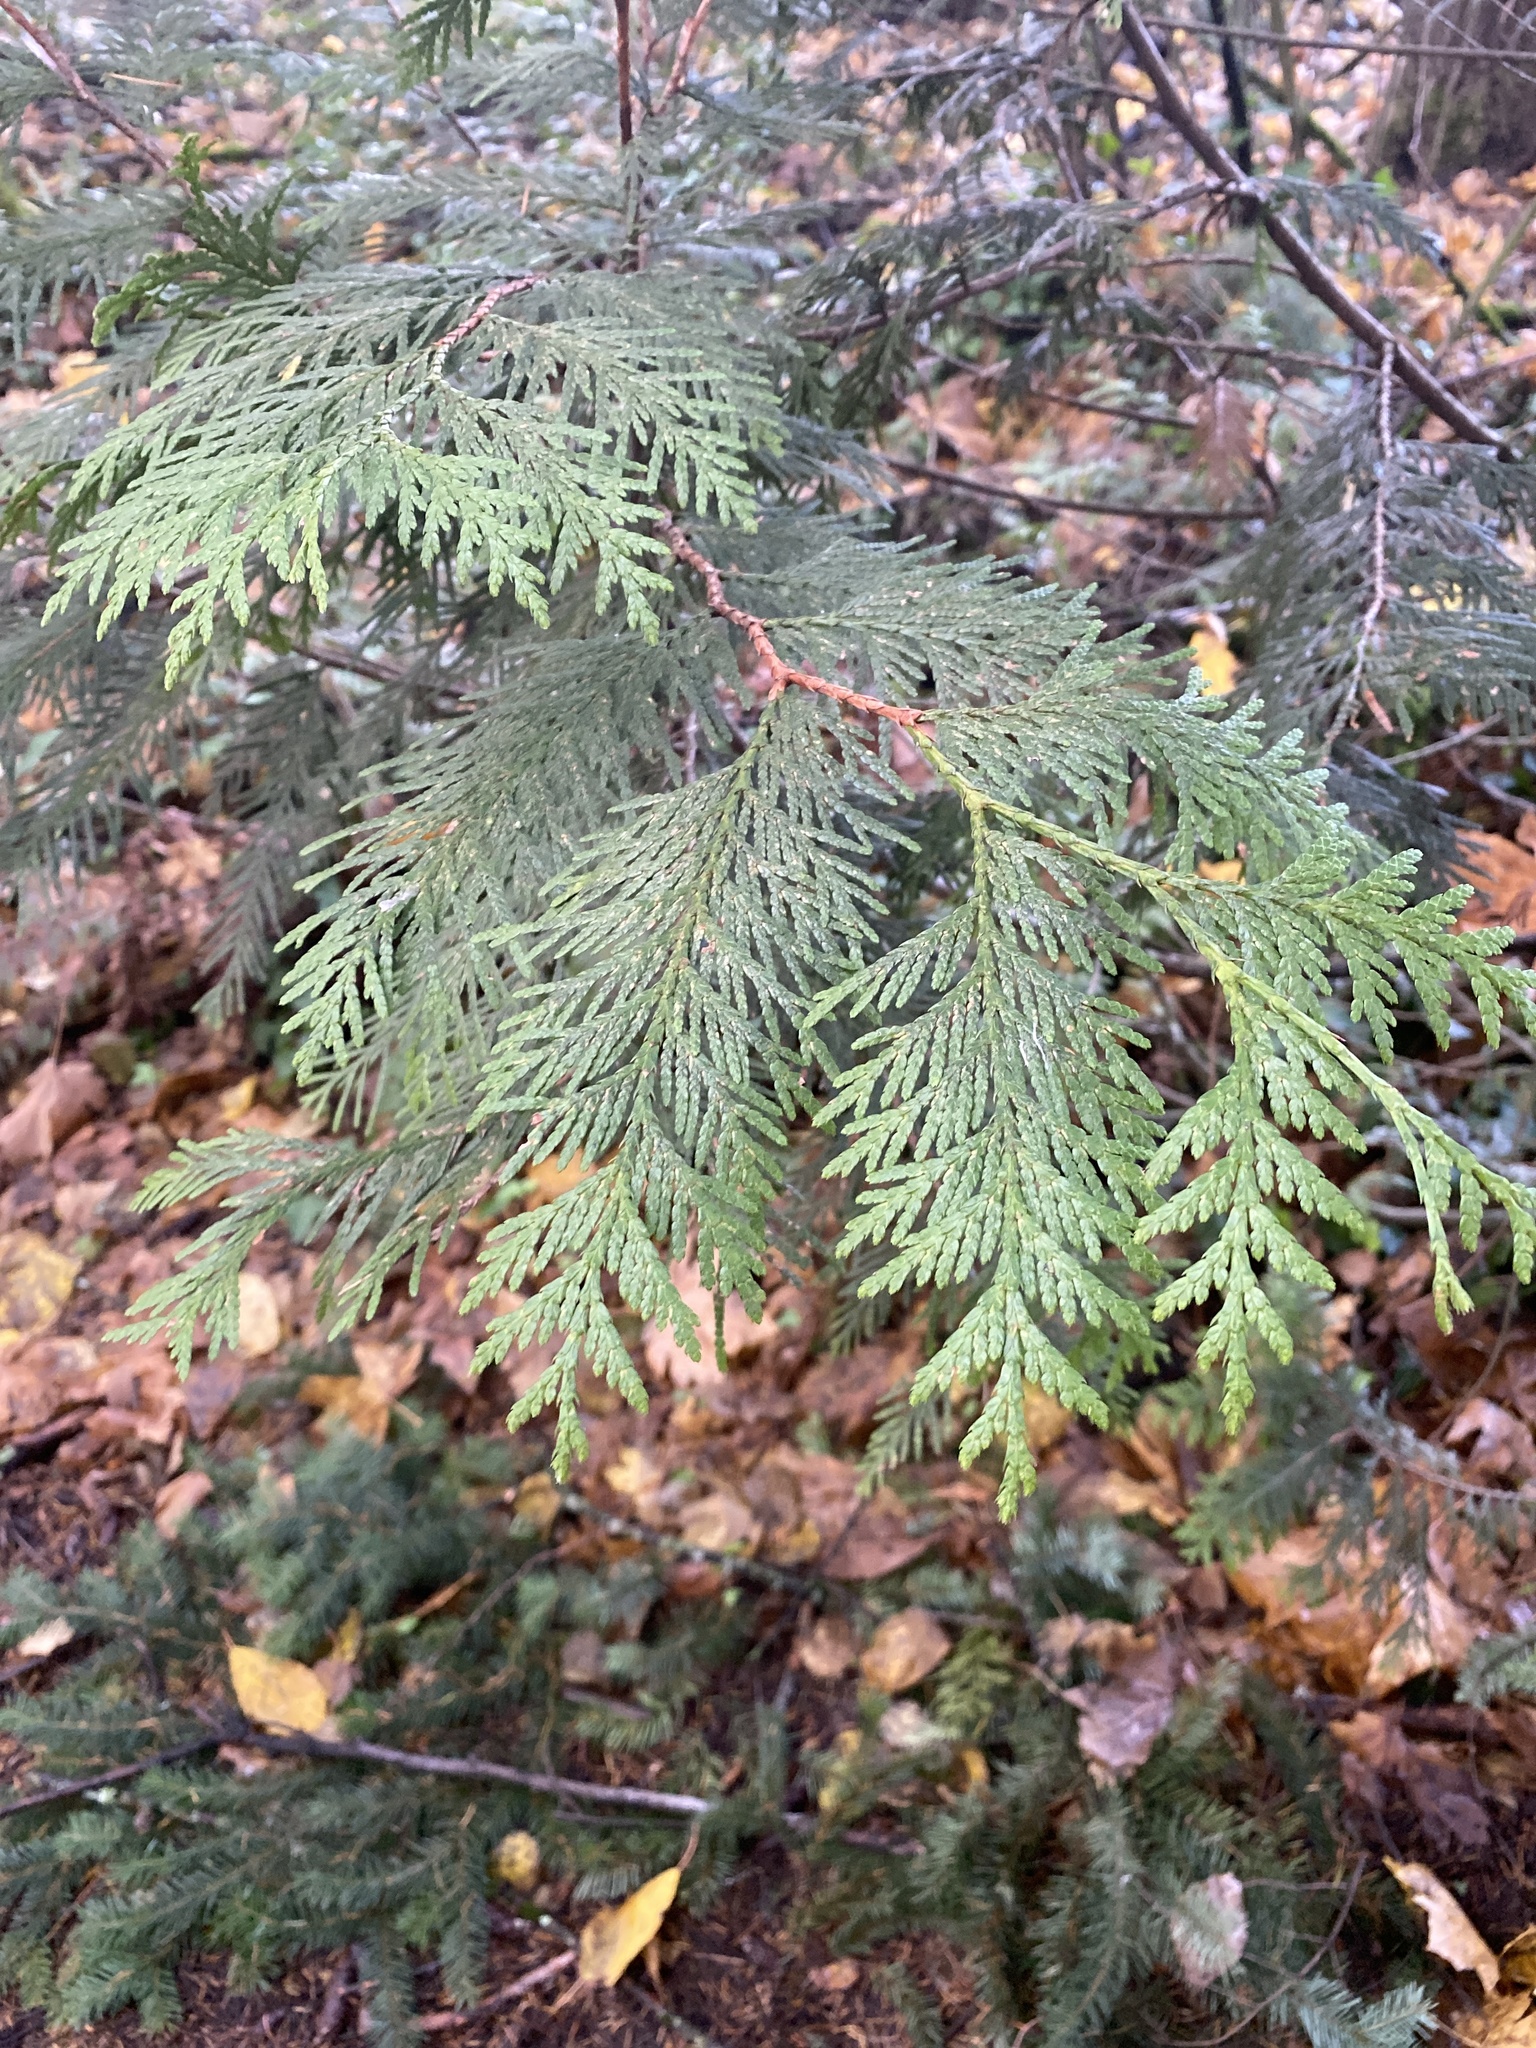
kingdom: Plantae
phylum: Tracheophyta
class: Pinopsida
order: Pinales
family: Cupressaceae
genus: Thuja
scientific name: Thuja plicata
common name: Western red-cedar
